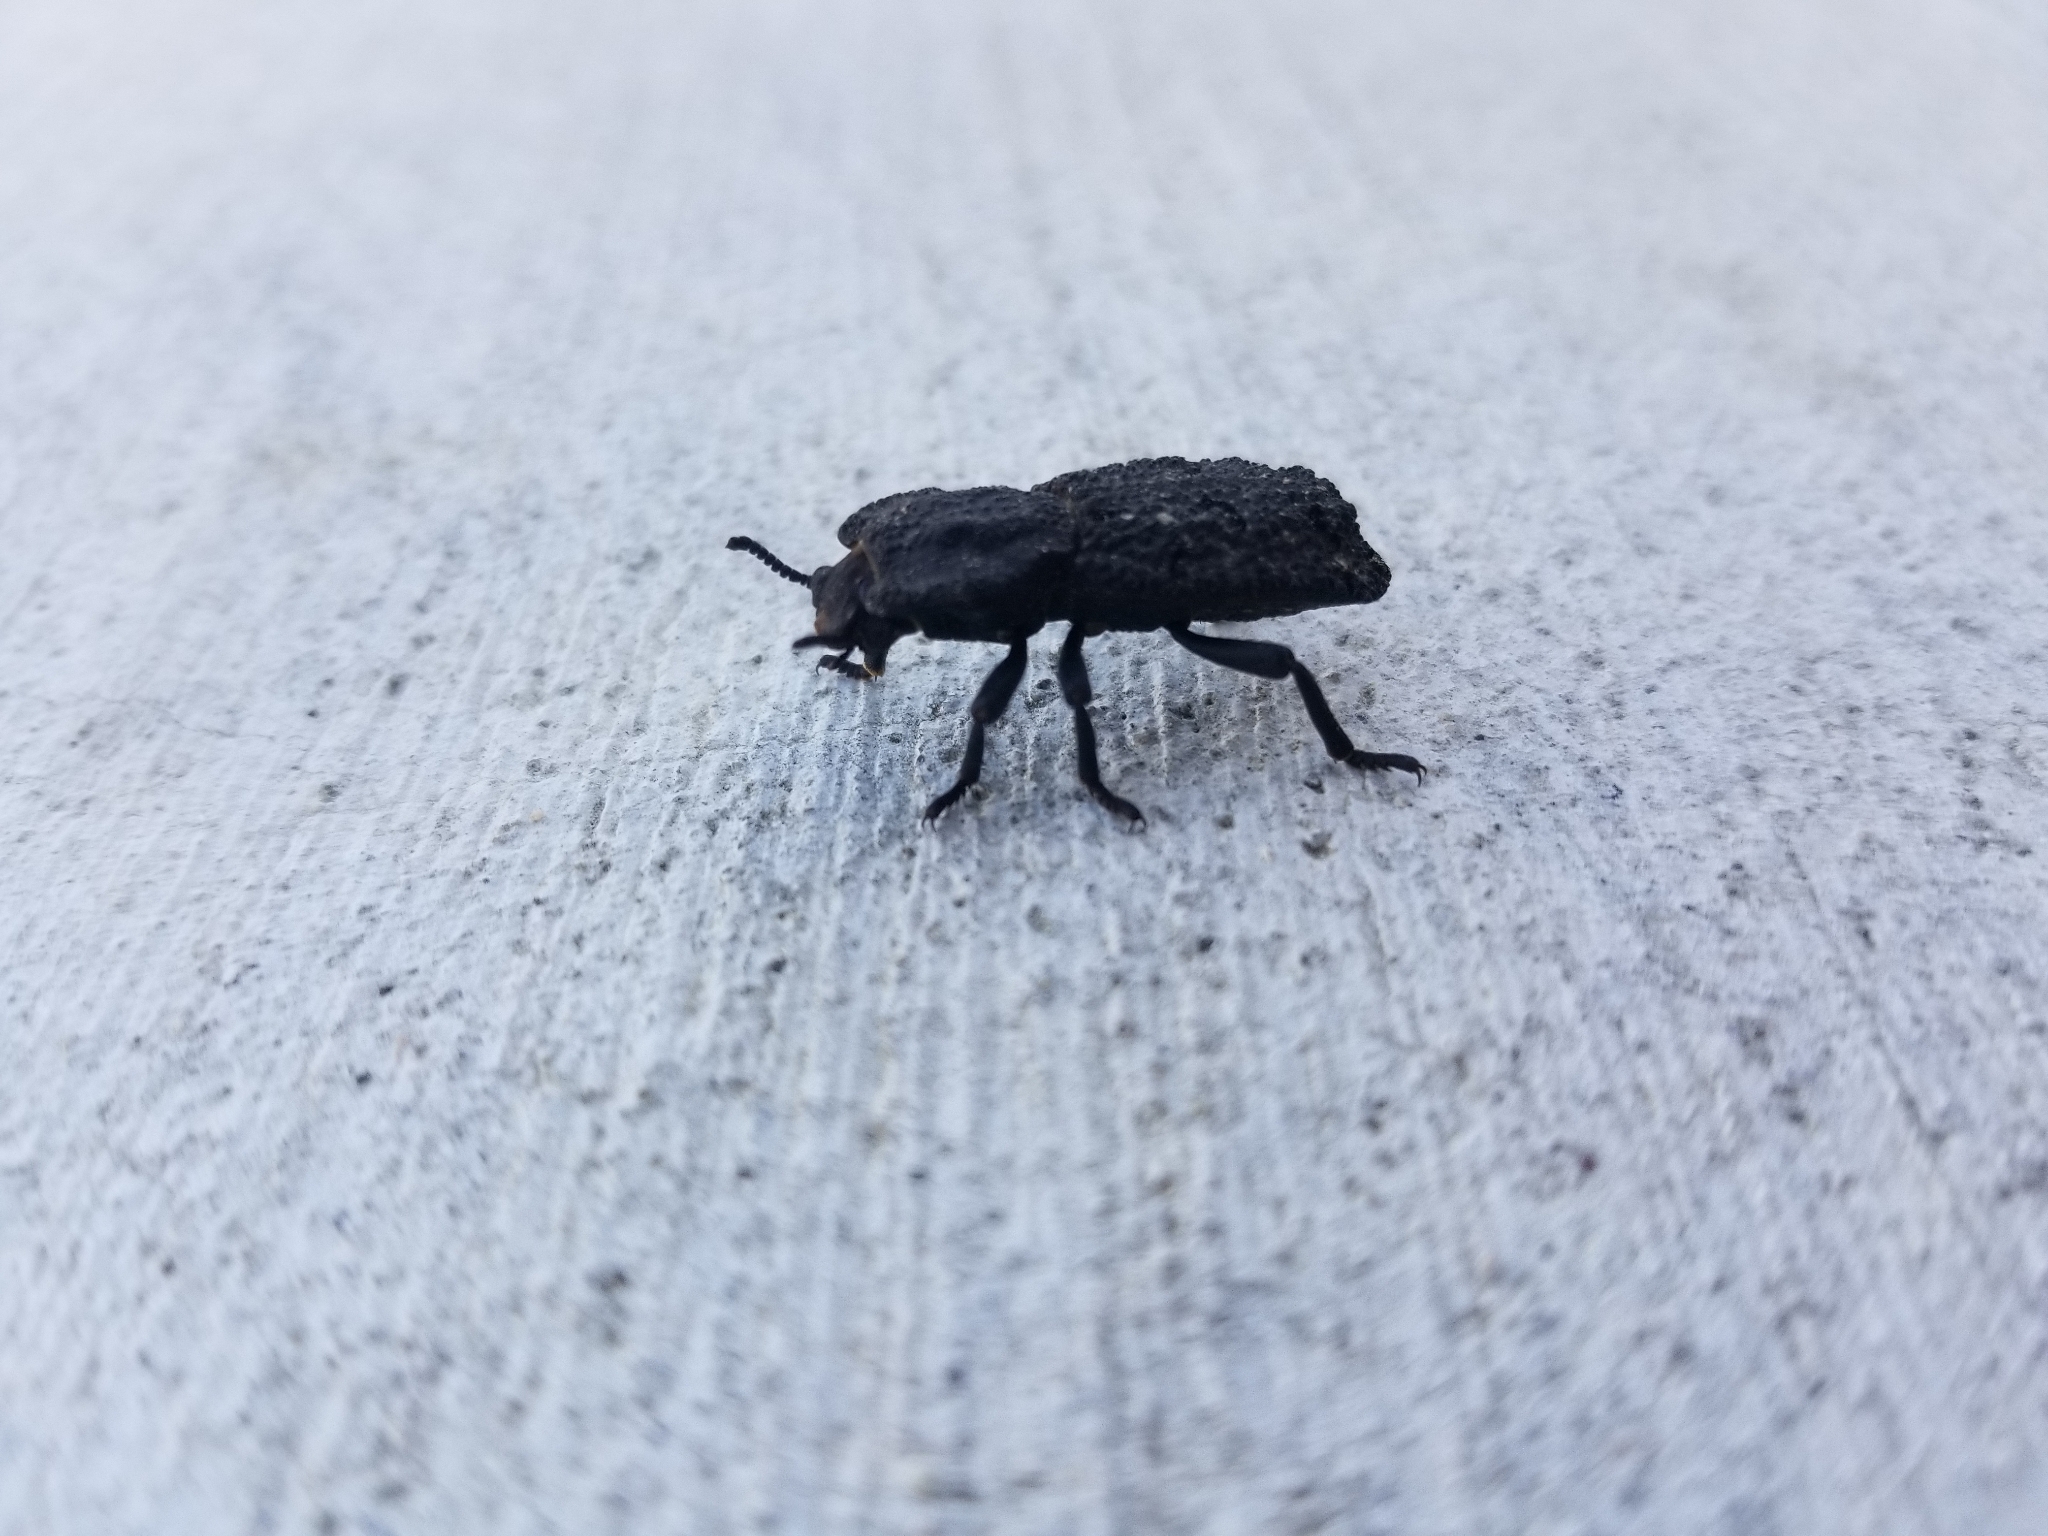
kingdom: Animalia
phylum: Arthropoda
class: Insecta
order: Coleoptera
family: Zopheridae
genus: Phloeodes
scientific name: Phloeodes diabolicus
